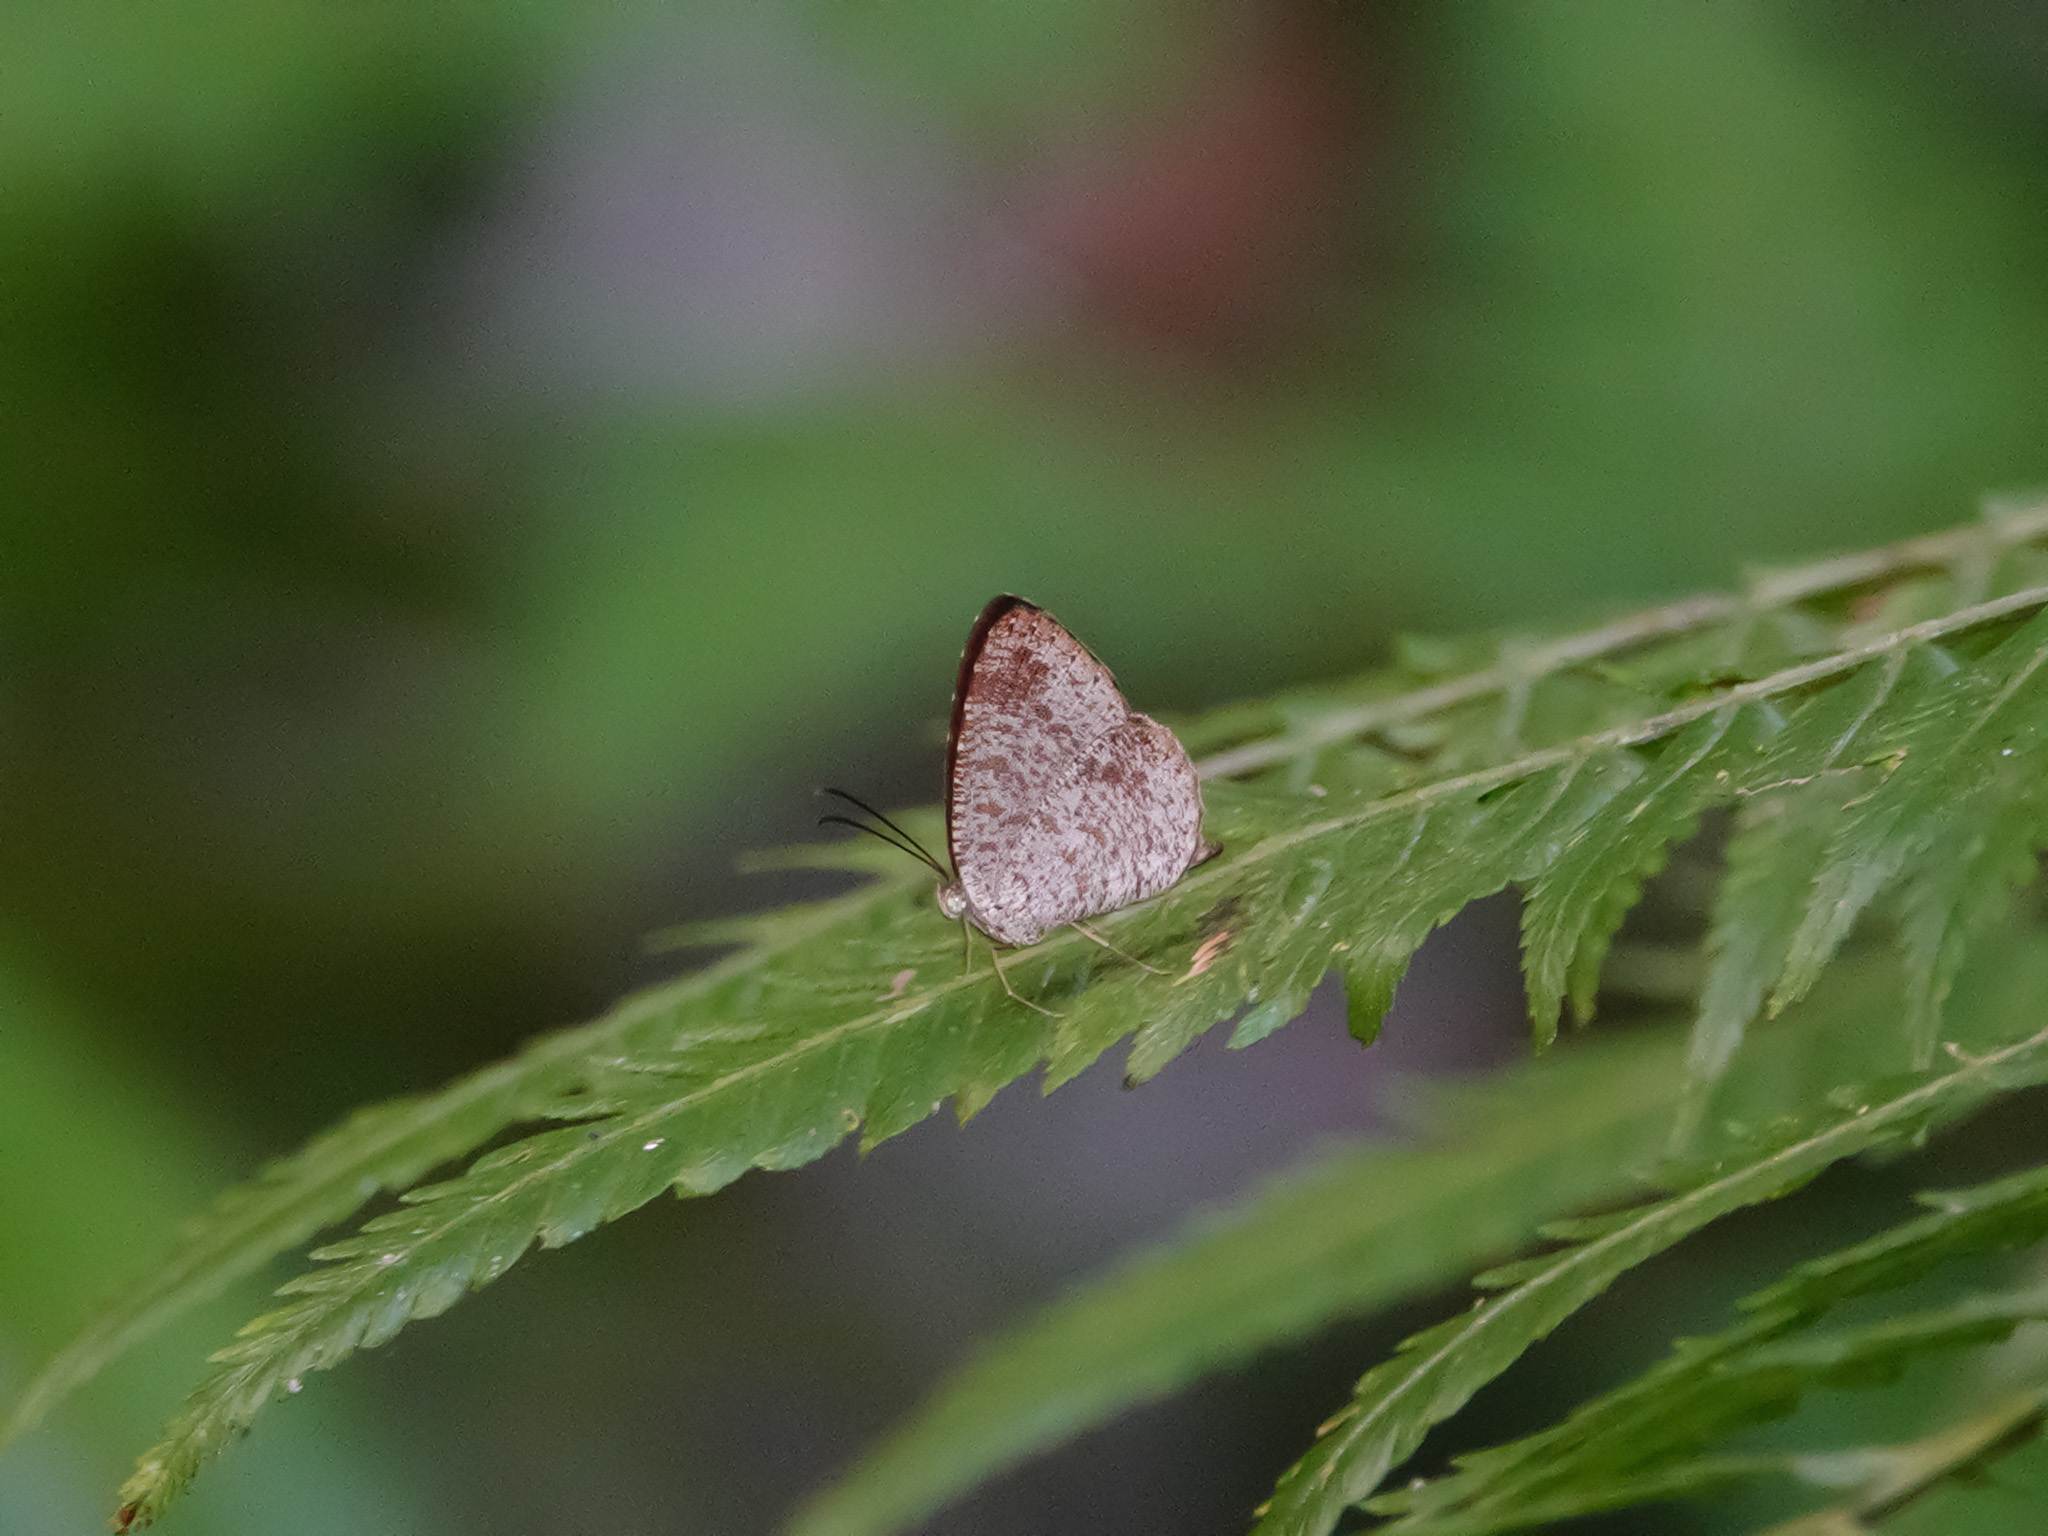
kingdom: Animalia
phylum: Arthropoda
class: Insecta
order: Lepidoptera
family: Lycaenidae
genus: Allotinus
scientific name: Allotinus fabius
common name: Angled darkie
